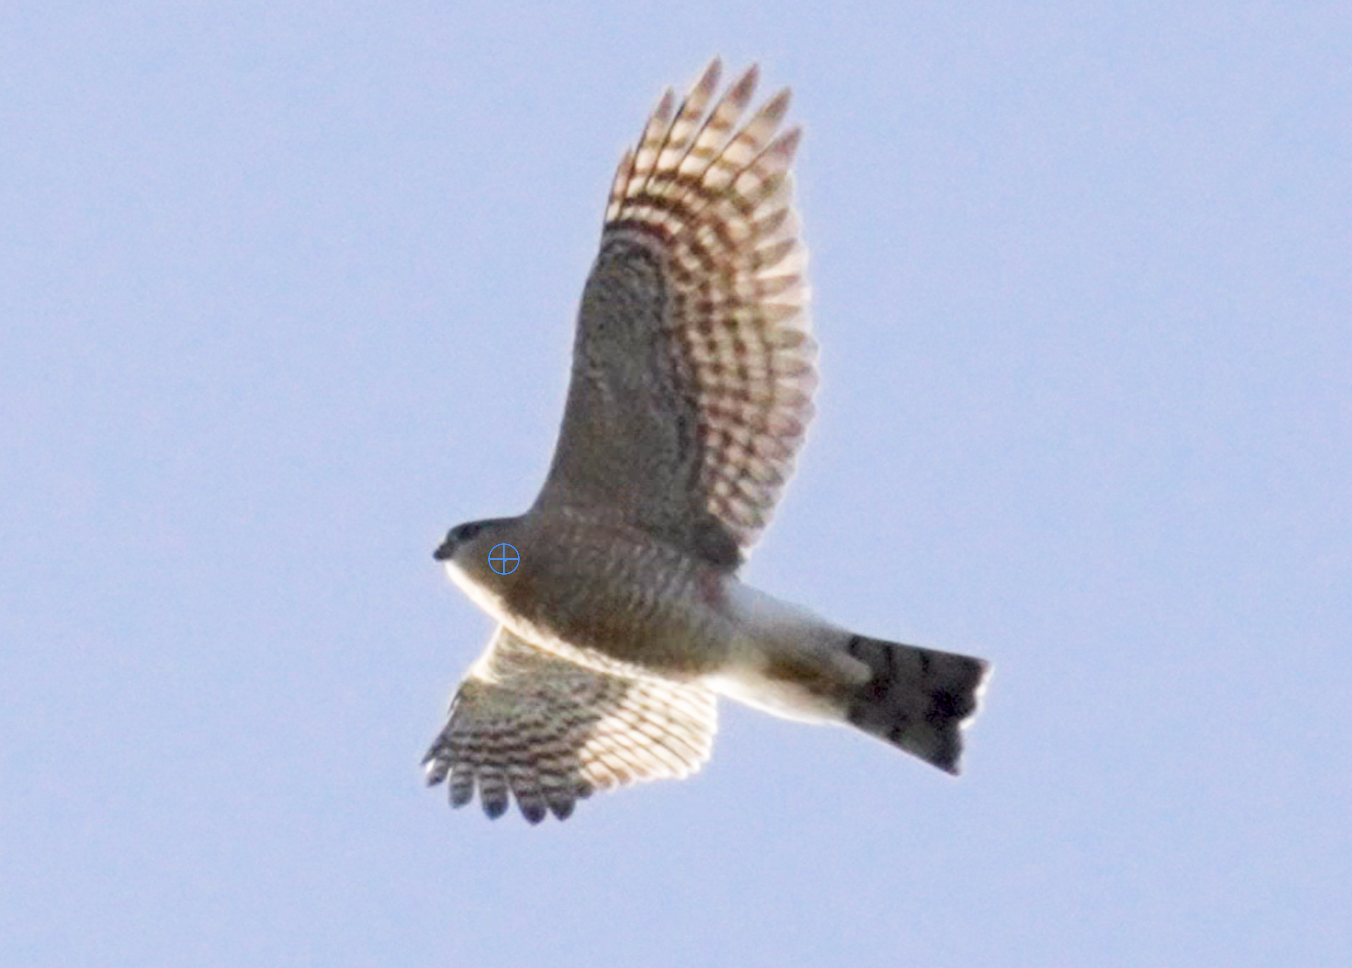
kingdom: Animalia
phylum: Chordata
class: Aves
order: Accipitriformes
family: Accipitridae
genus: Accipiter
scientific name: Accipiter striatus
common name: Sharp-shinned hawk
